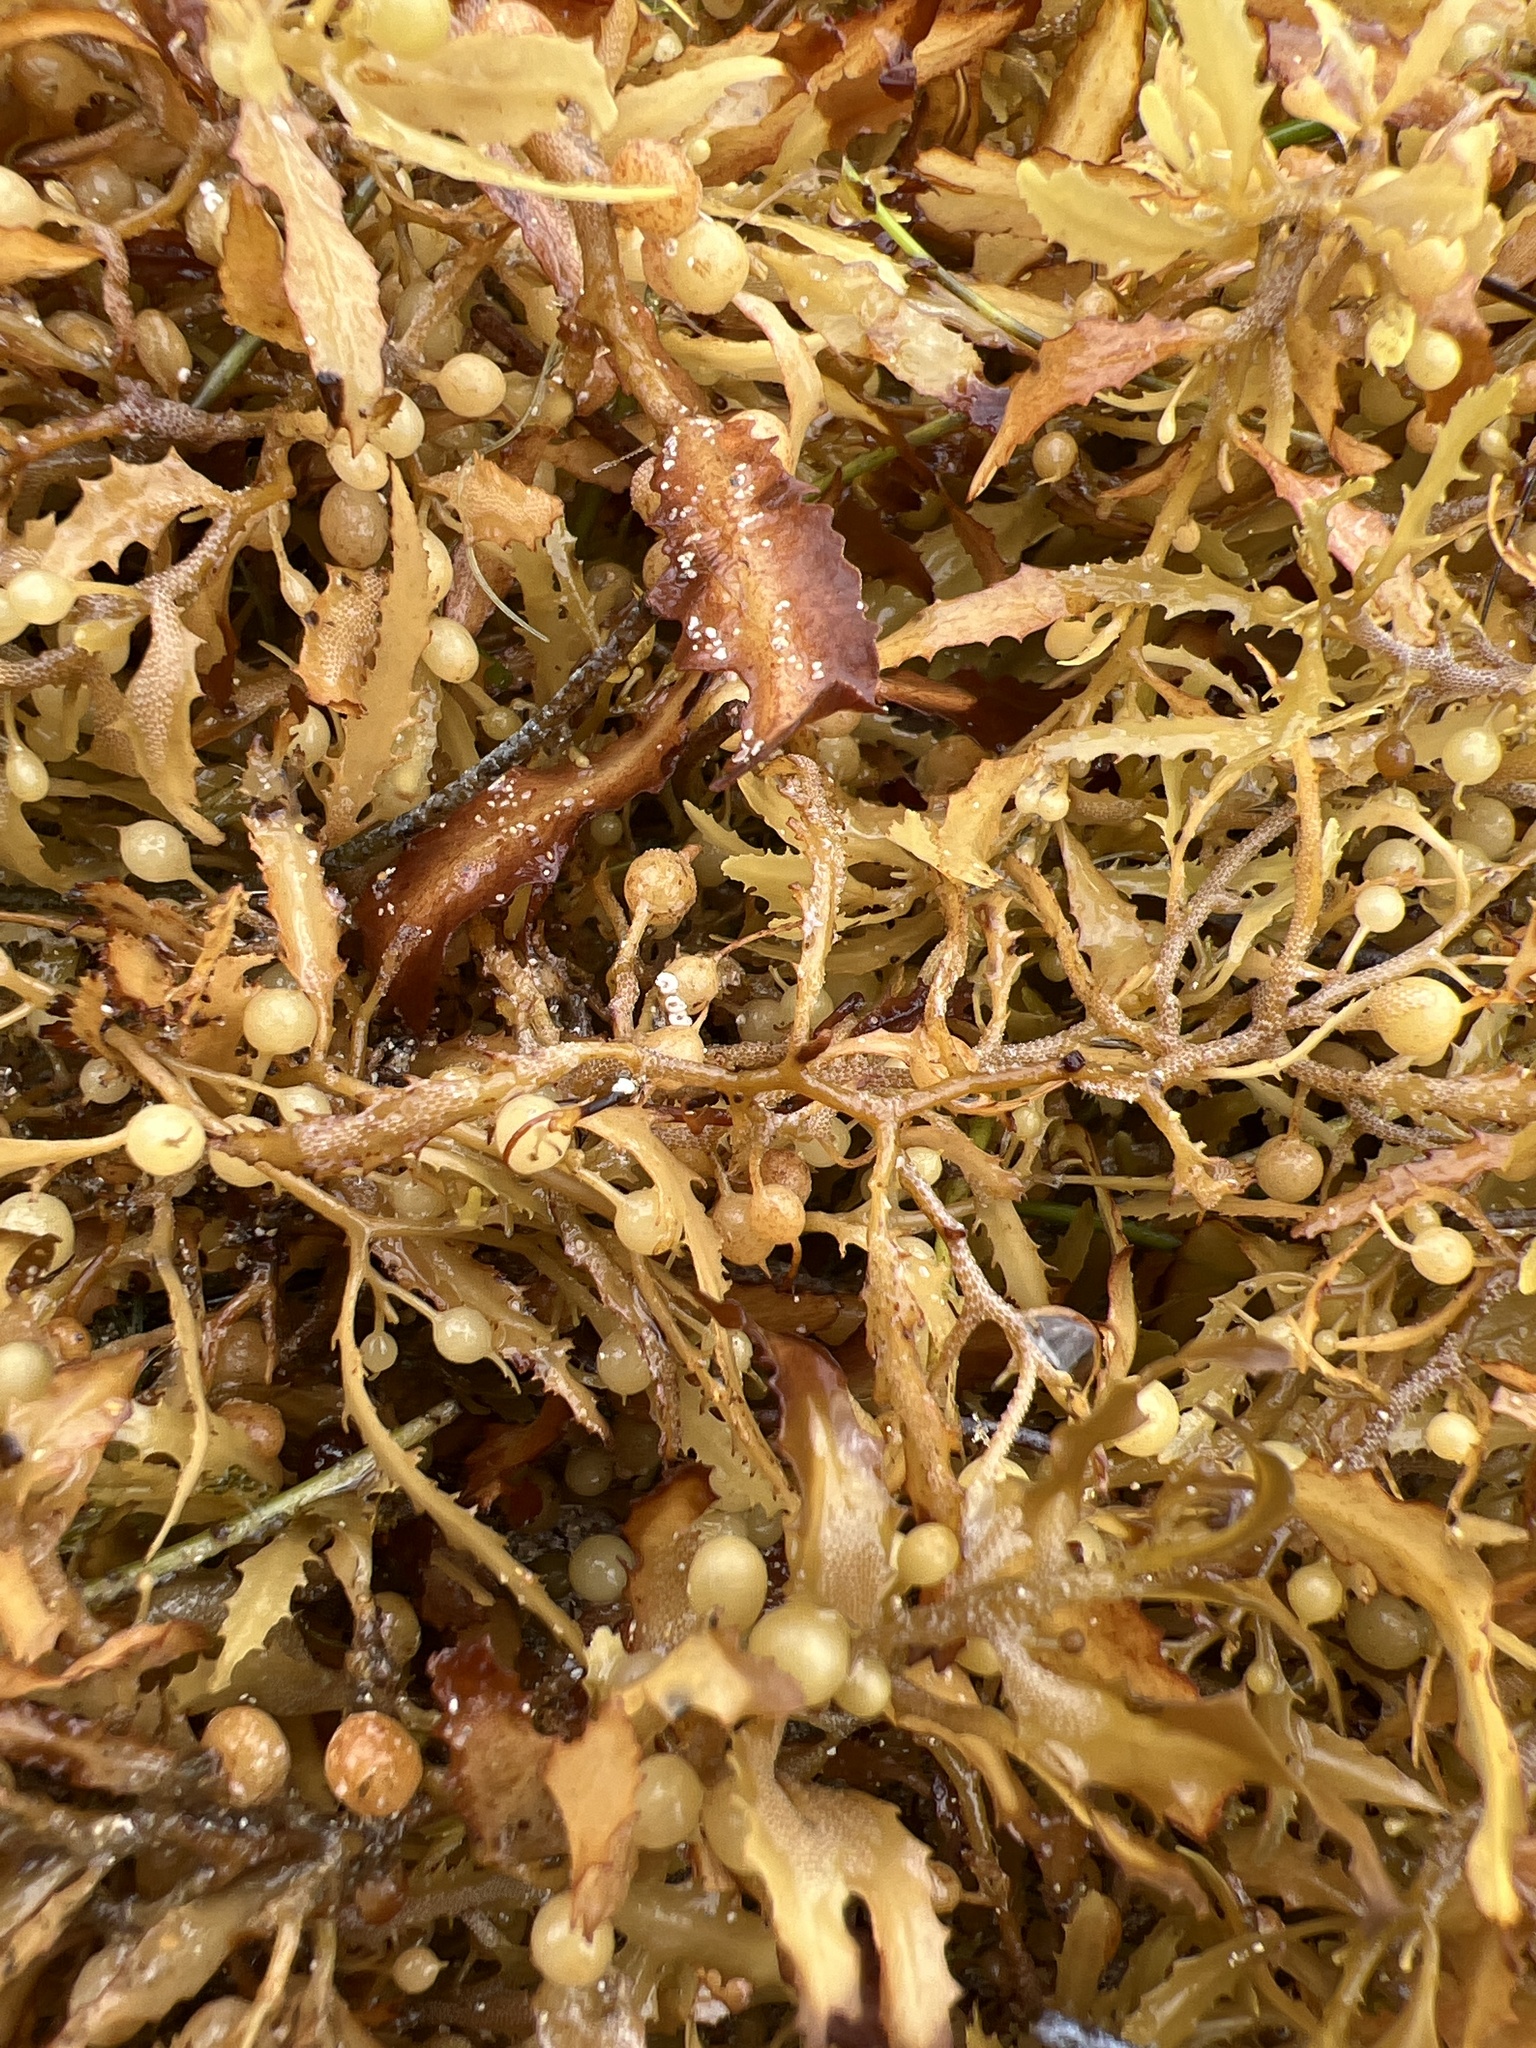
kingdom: Chromista
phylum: Ochrophyta
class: Phaeophyceae
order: Fucales
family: Sargassaceae
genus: Sargassum
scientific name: Sargassum fluitans
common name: Sargassum seaweed
